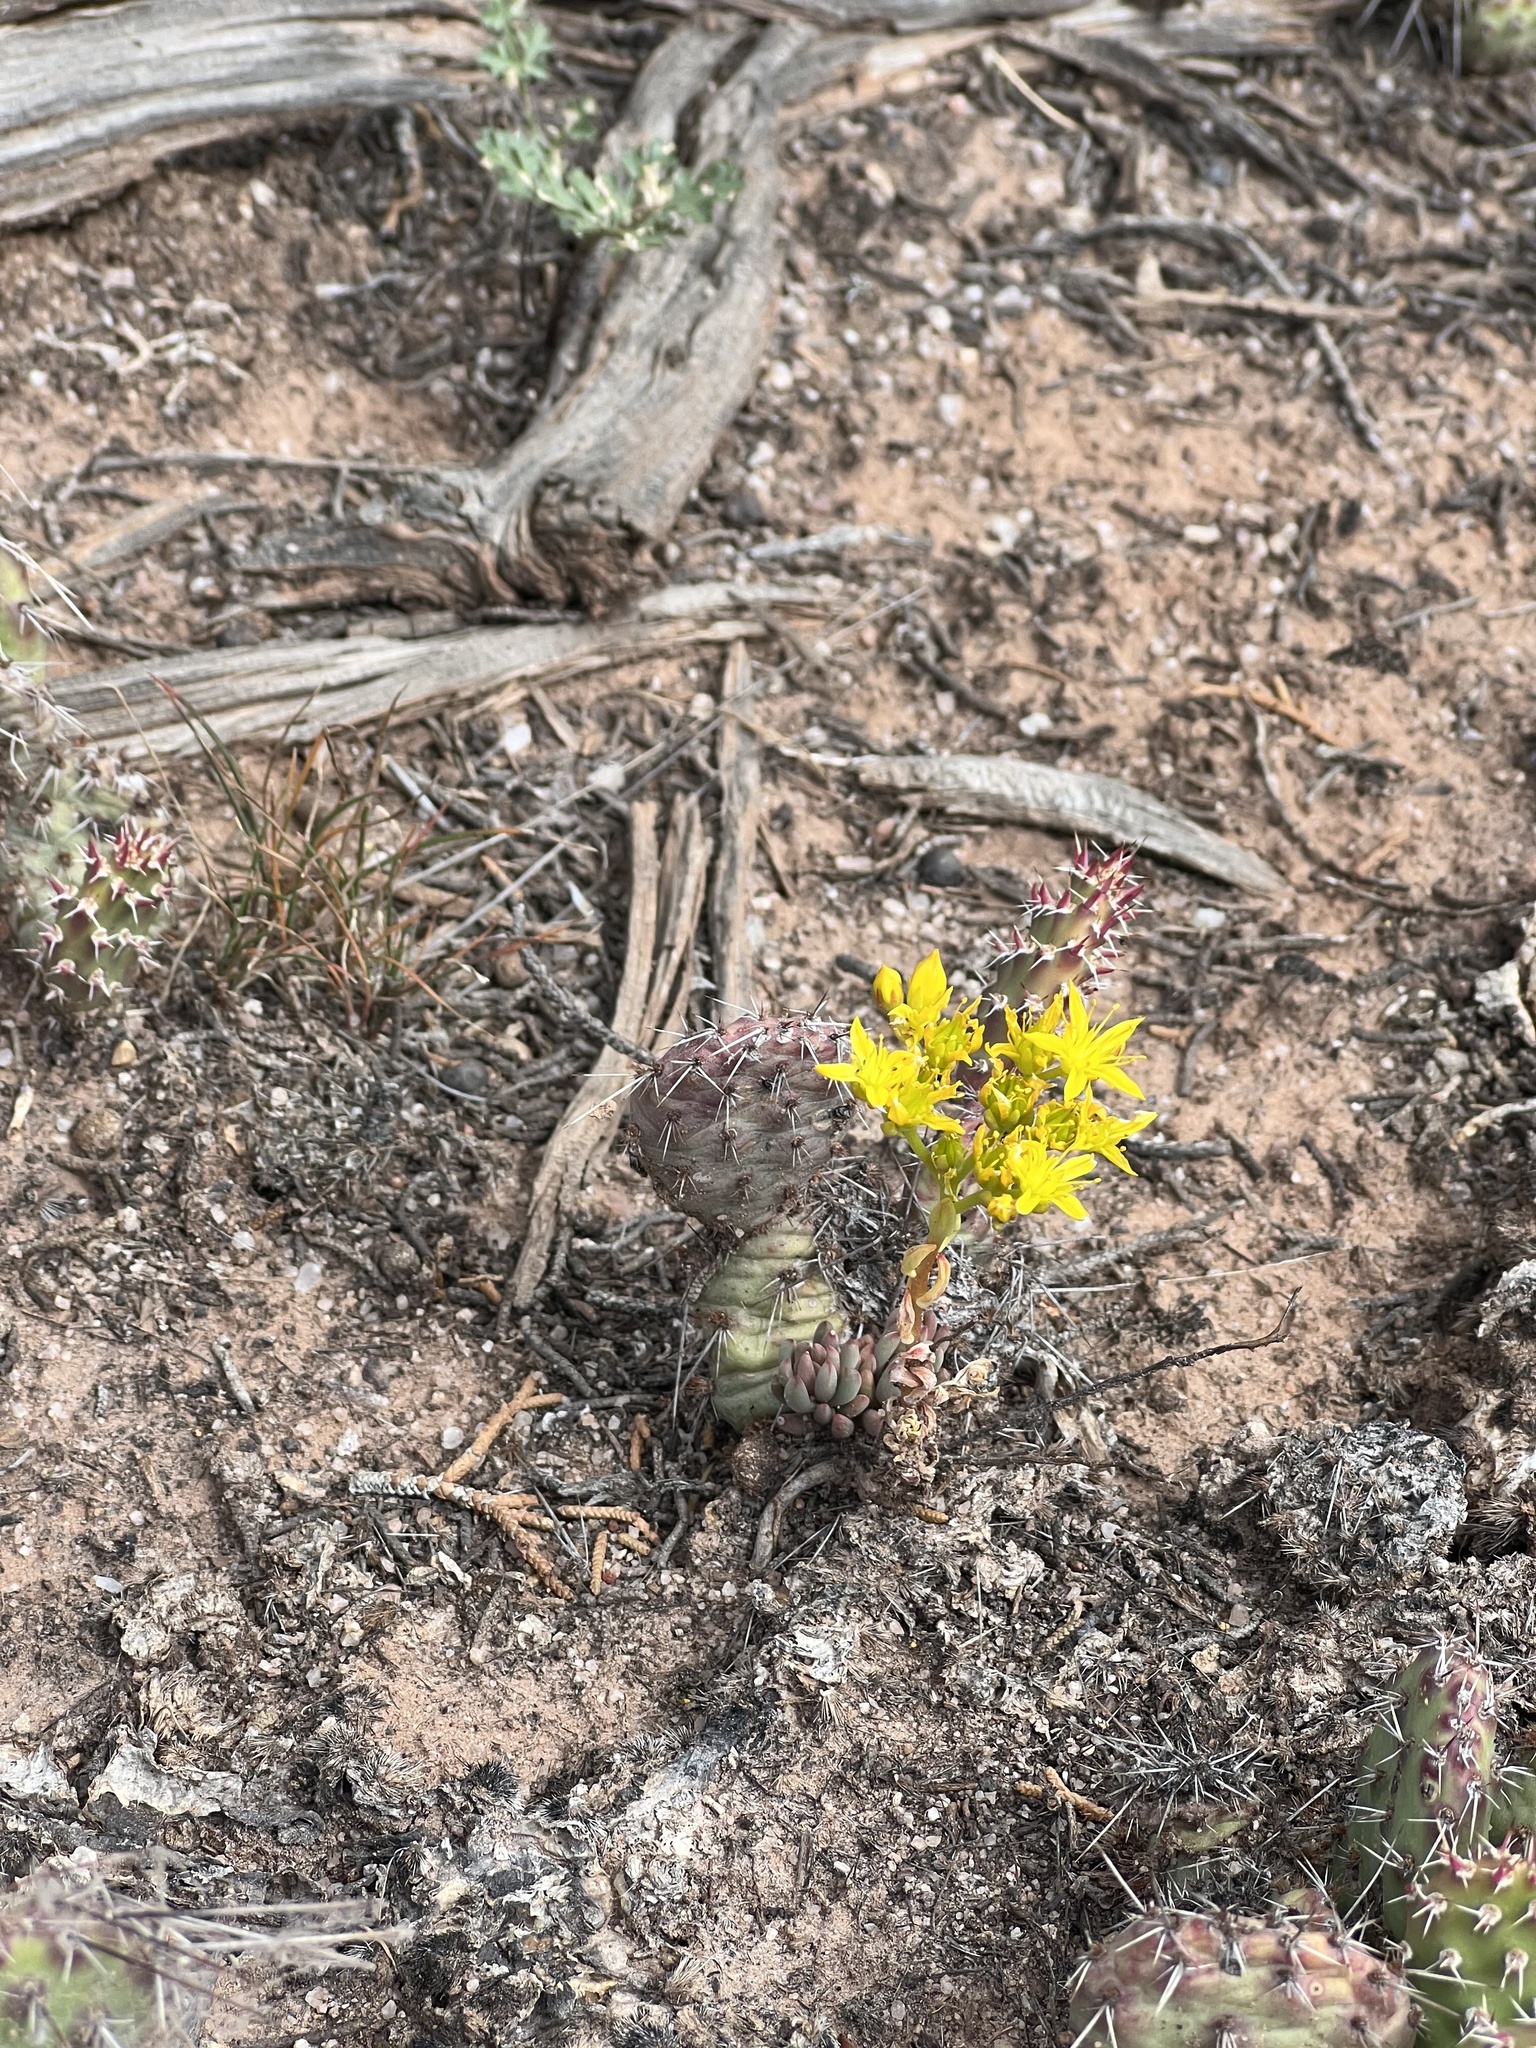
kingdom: Plantae
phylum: Tracheophyta
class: Magnoliopsida
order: Saxifragales
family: Crassulaceae
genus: Sedum
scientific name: Sedum lanceolatum
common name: Common stonecrop
